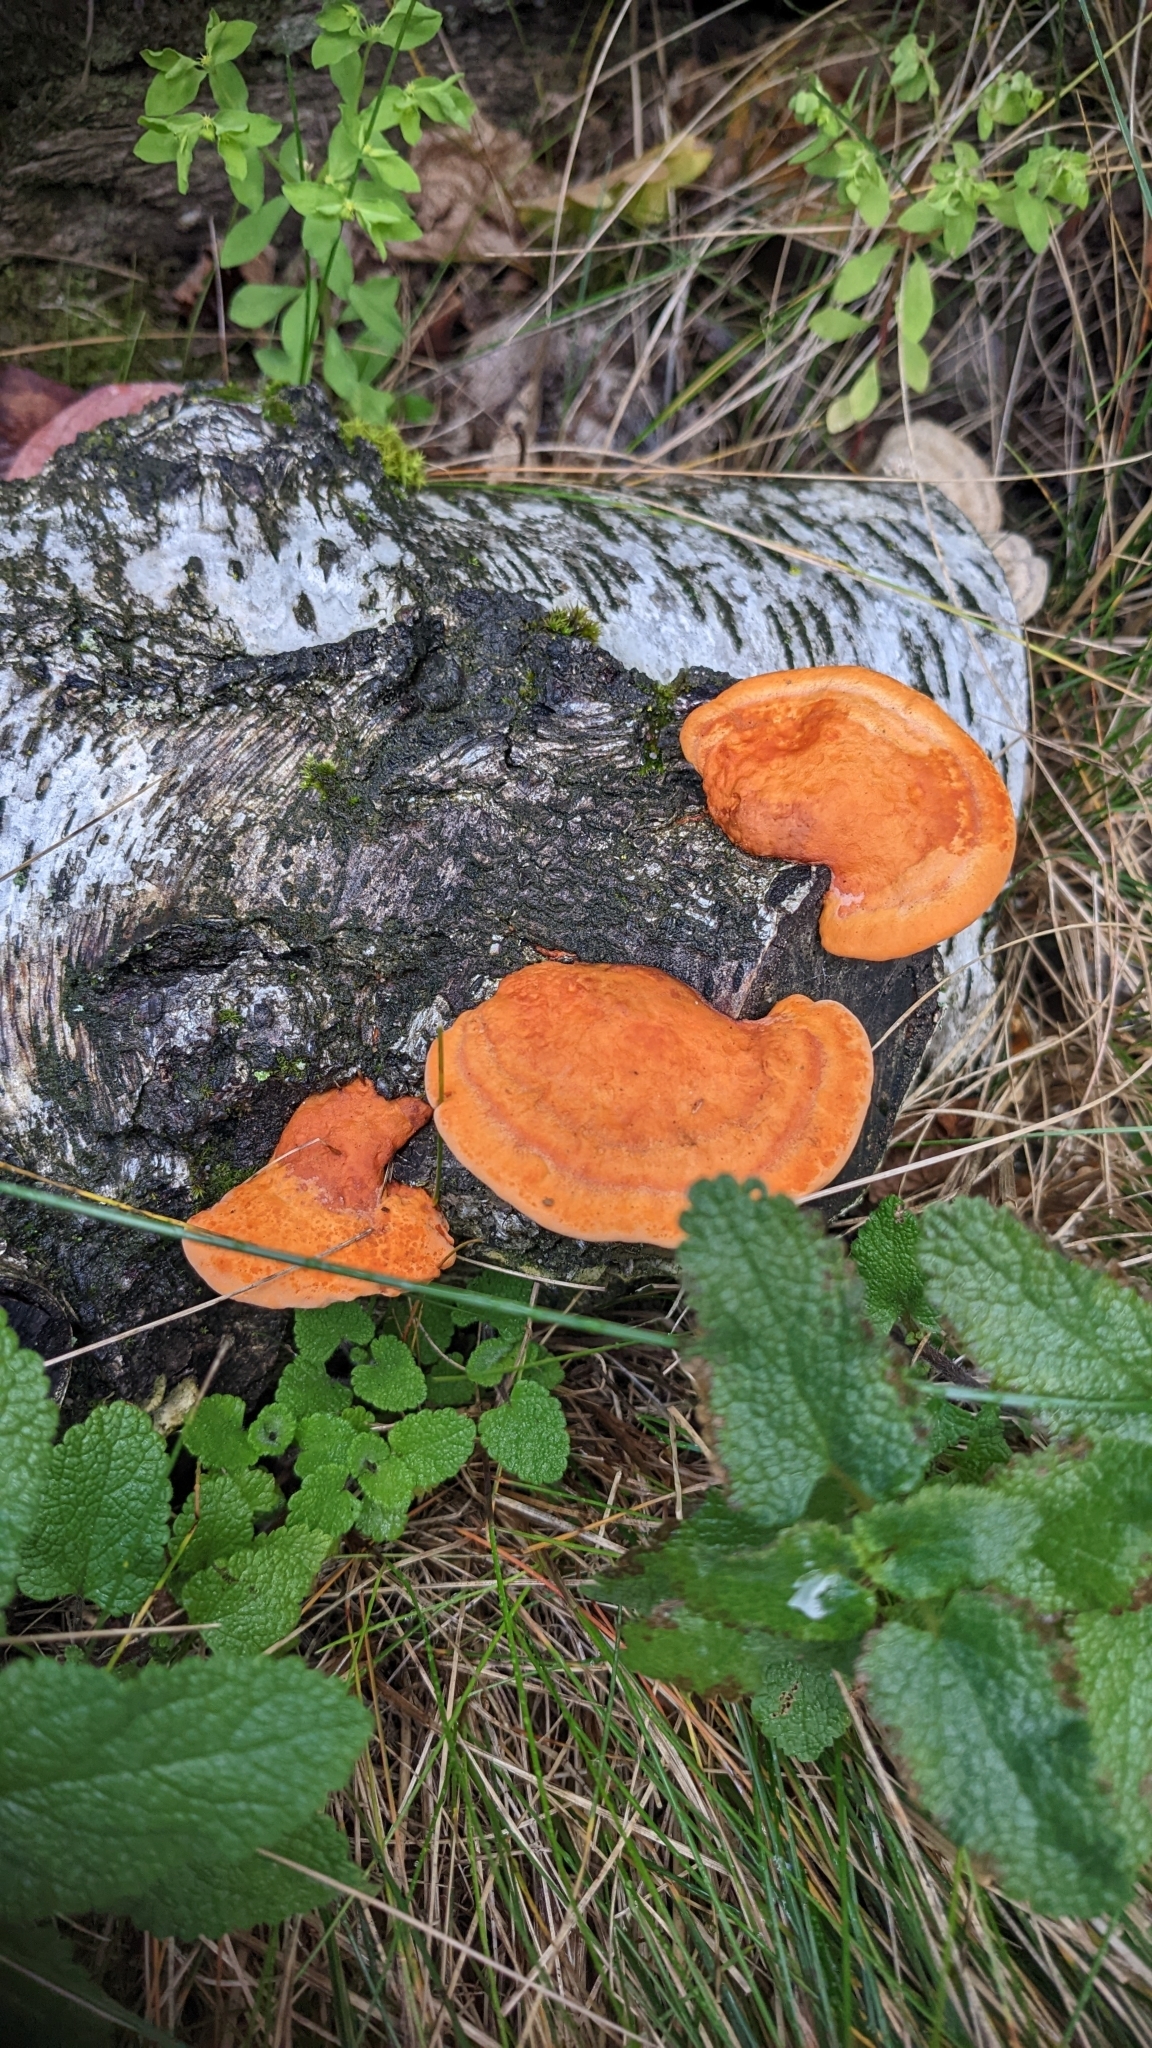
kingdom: Fungi
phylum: Basidiomycota
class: Agaricomycetes
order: Polyporales
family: Polyporaceae
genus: Trametes
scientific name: Trametes cinnabarina
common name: Northern cinnabar polypore
